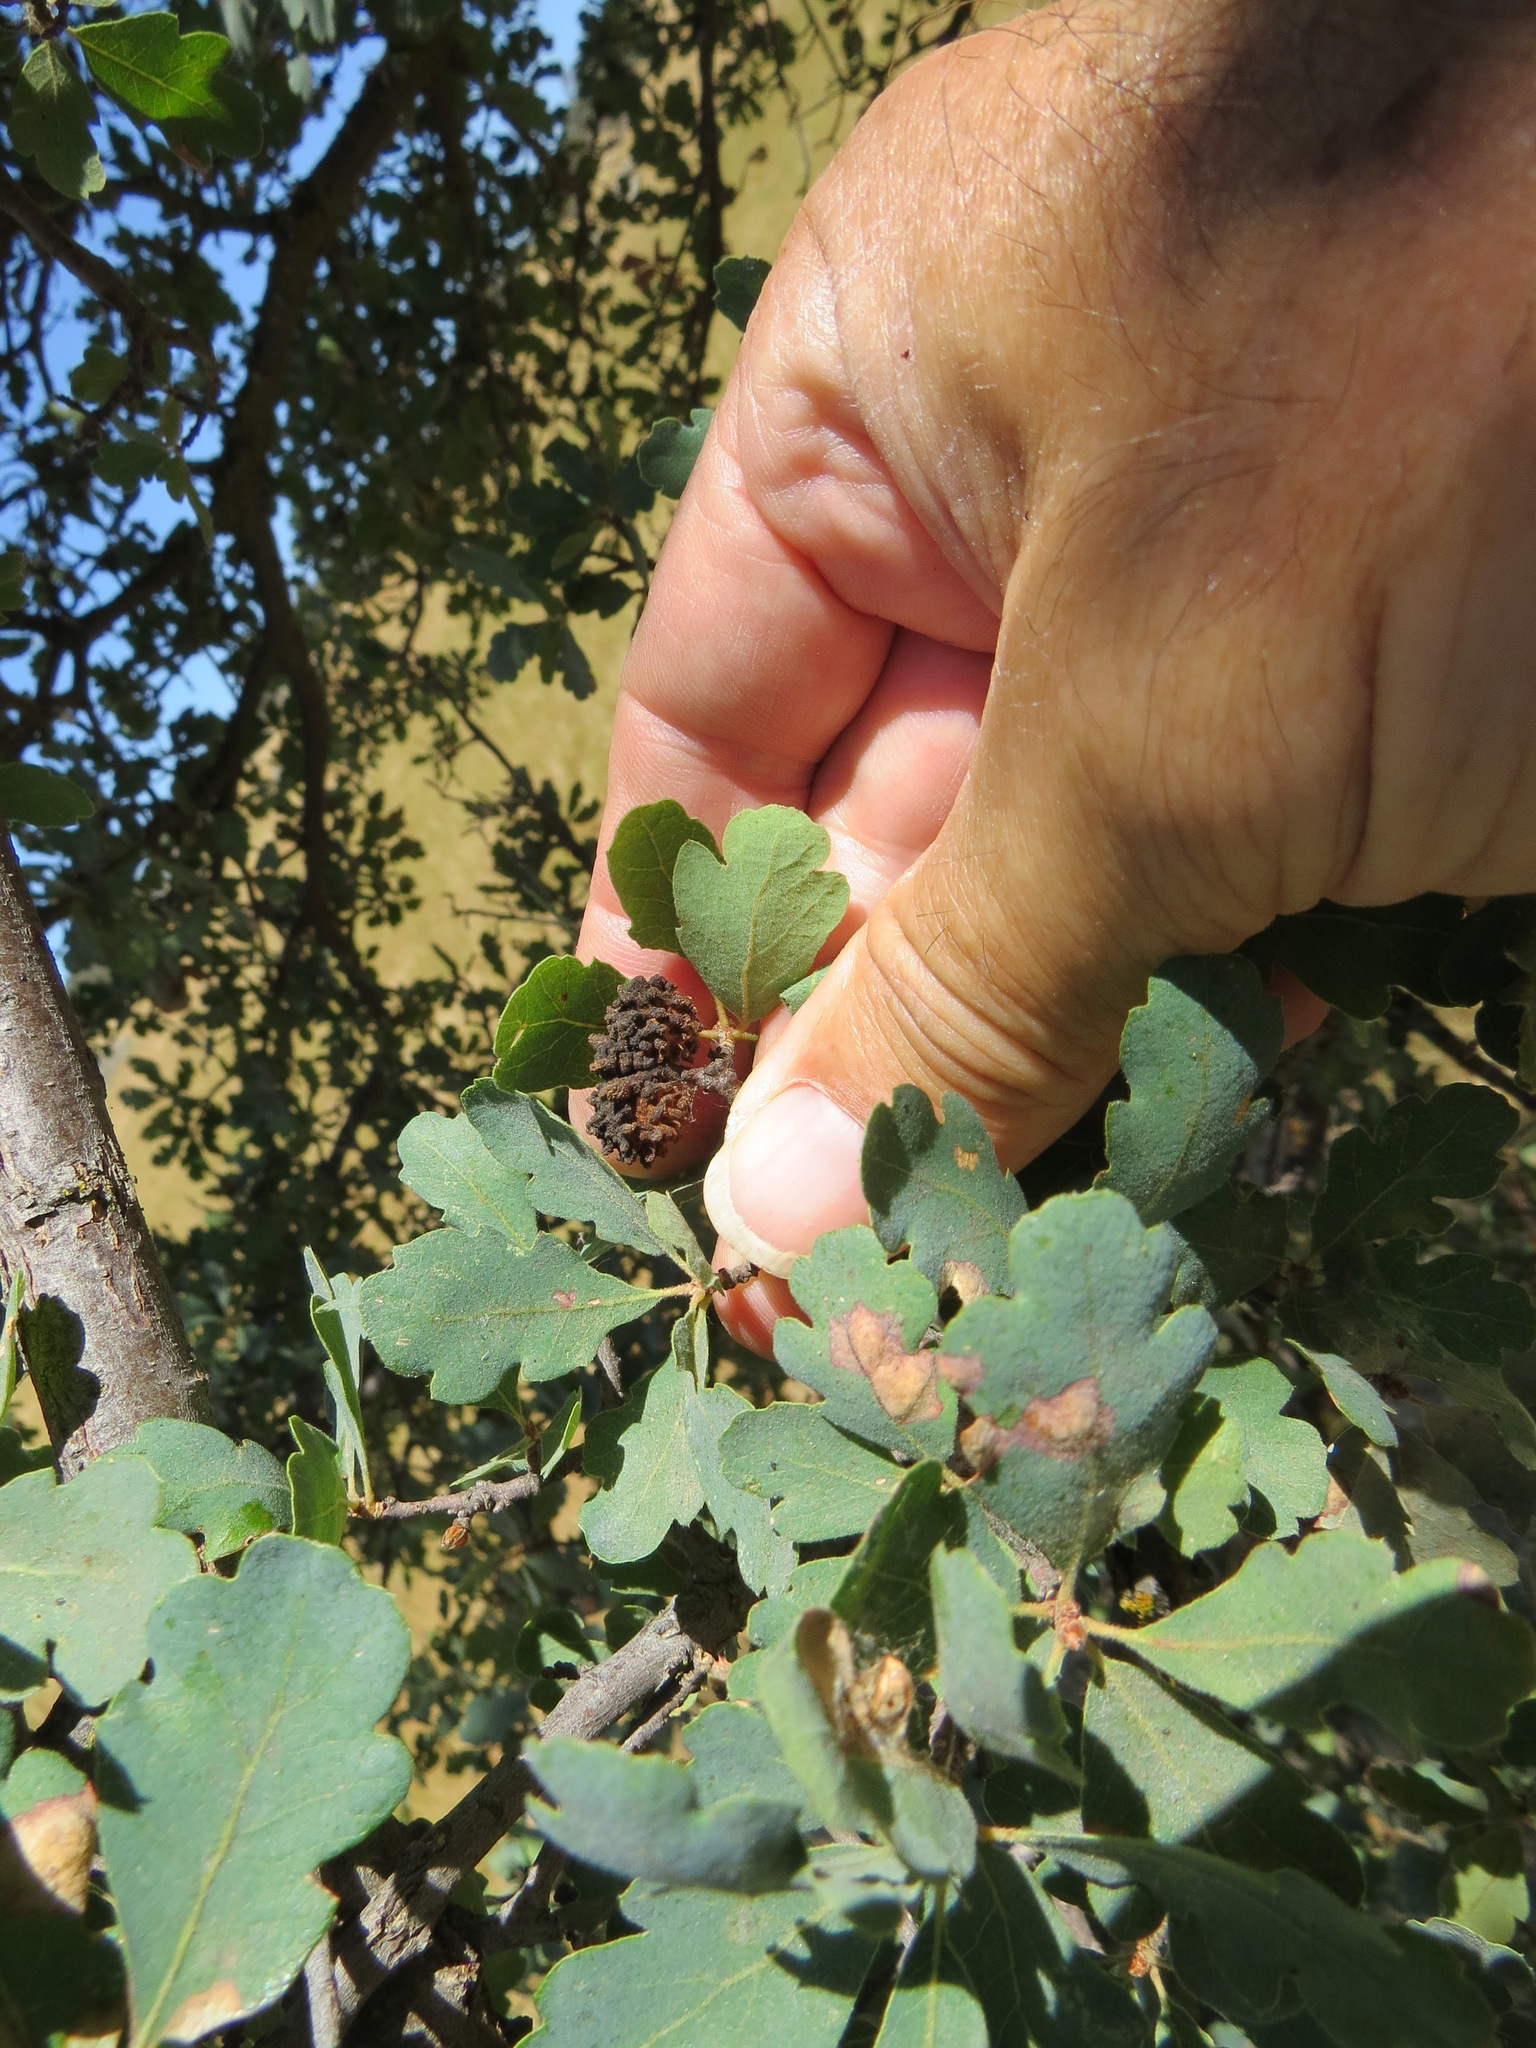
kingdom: Animalia
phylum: Arthropoda
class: Insecta
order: Hymenoptera
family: Cynipidae
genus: Burnettweldia
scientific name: Burnettweldia
